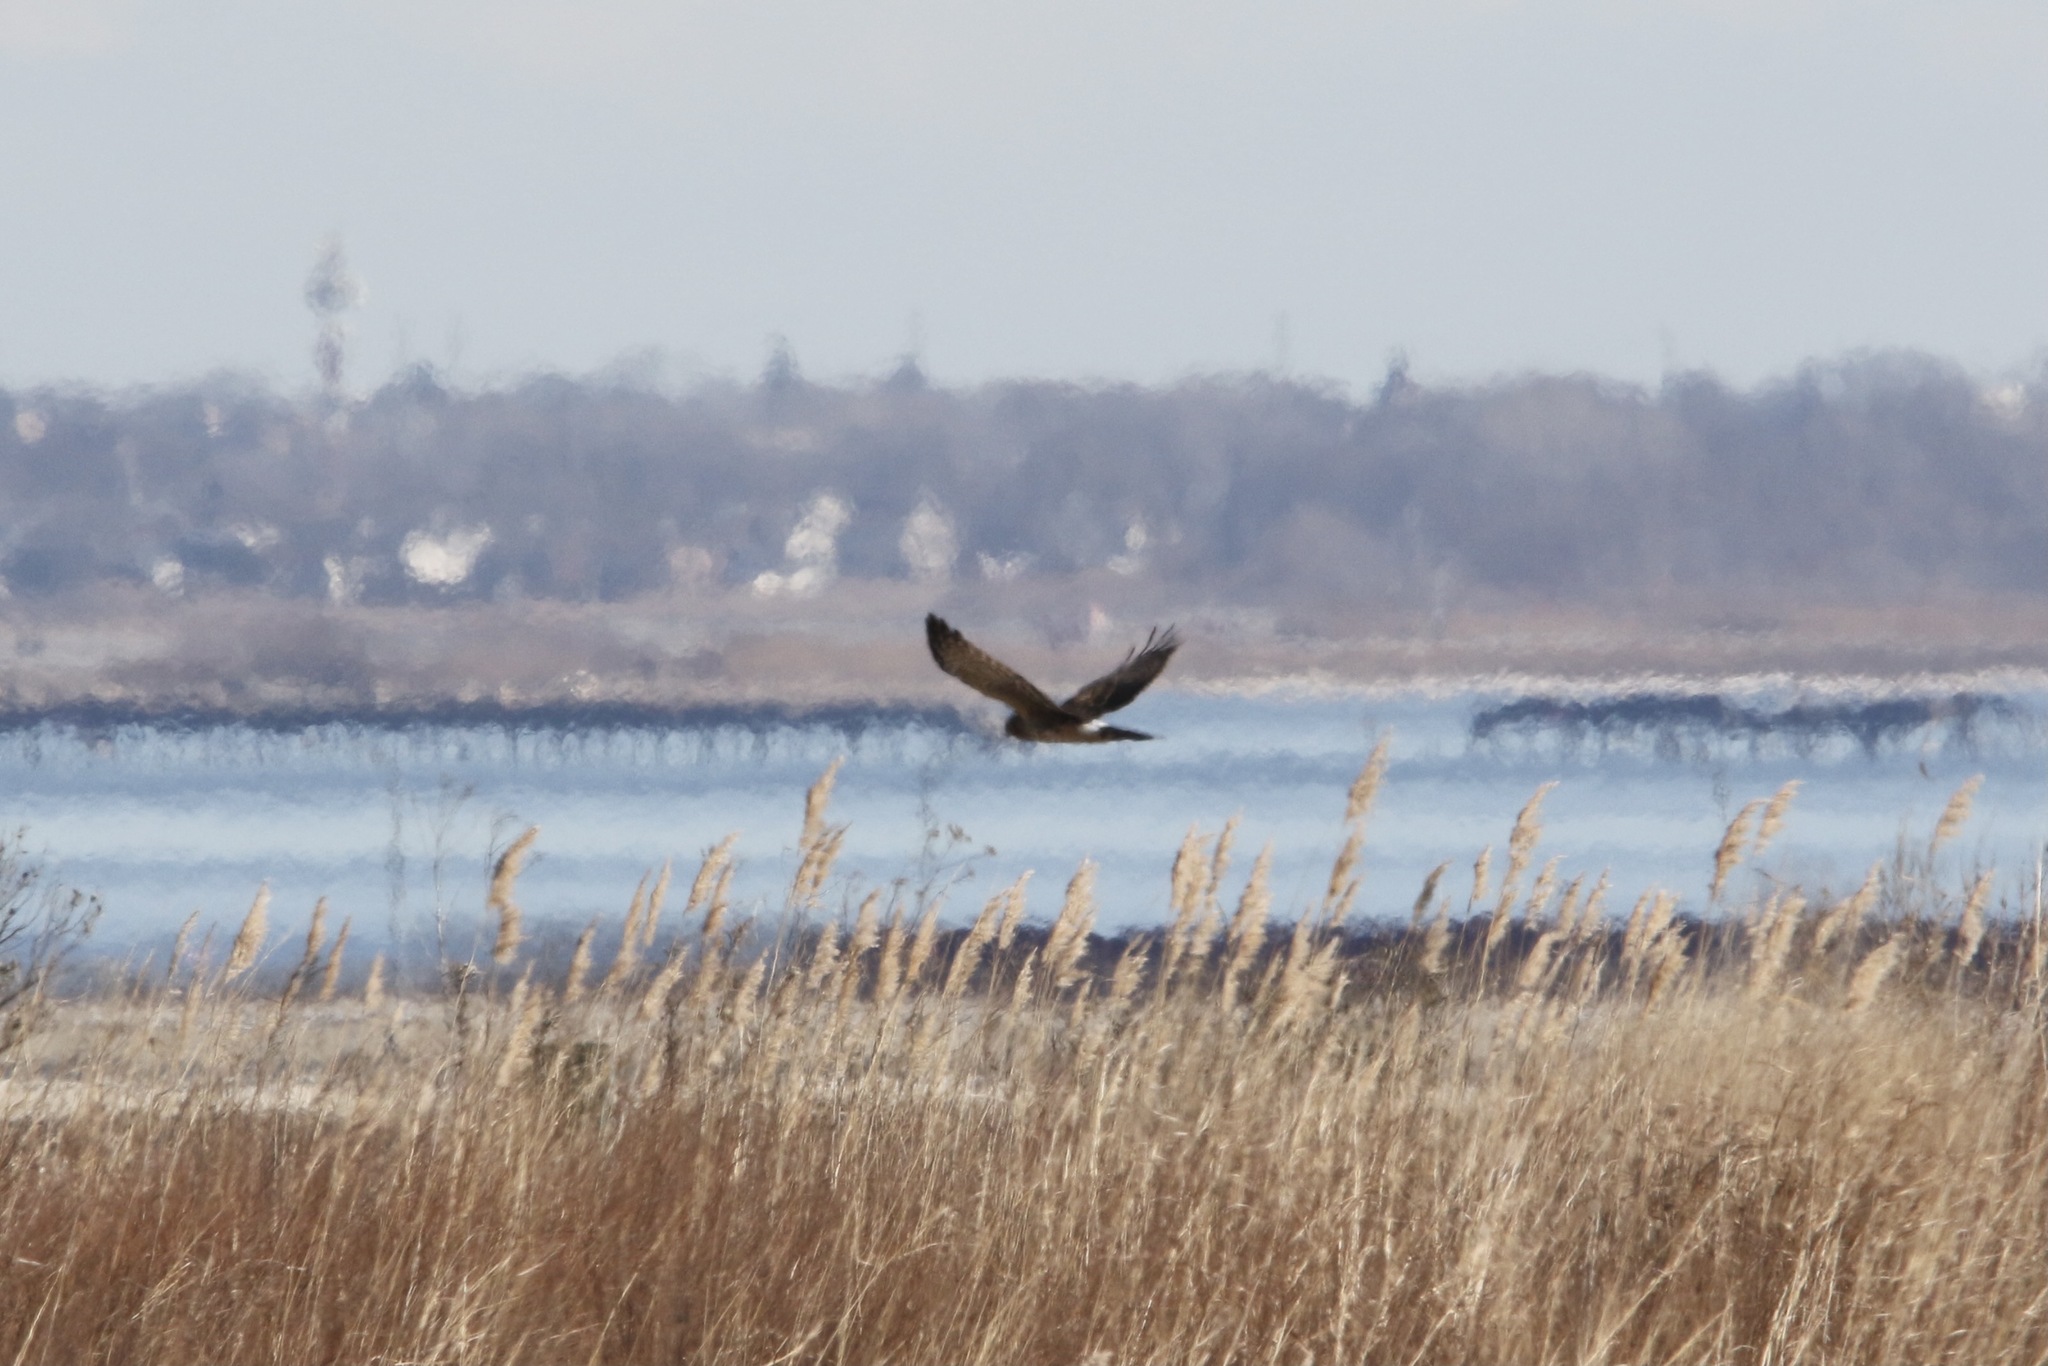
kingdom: Animalia
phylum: Chordata
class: Aves
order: Accipitriformes
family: Accipitridae
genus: Circus
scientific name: Circus cyaneus
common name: Hen harrier
